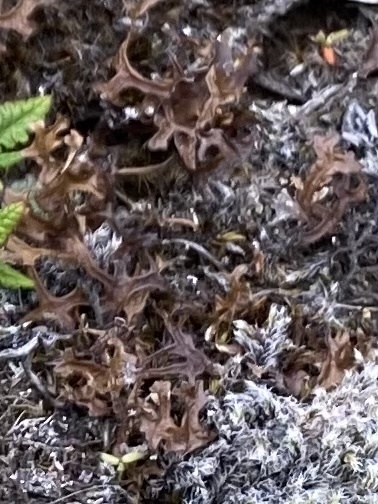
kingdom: Fungi
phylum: Ascomycota
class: Lecanoromycetes
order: Lecanorales
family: Parmeliaceae
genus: Cetraria
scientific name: Cetraria islandica
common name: Iceland lichen
